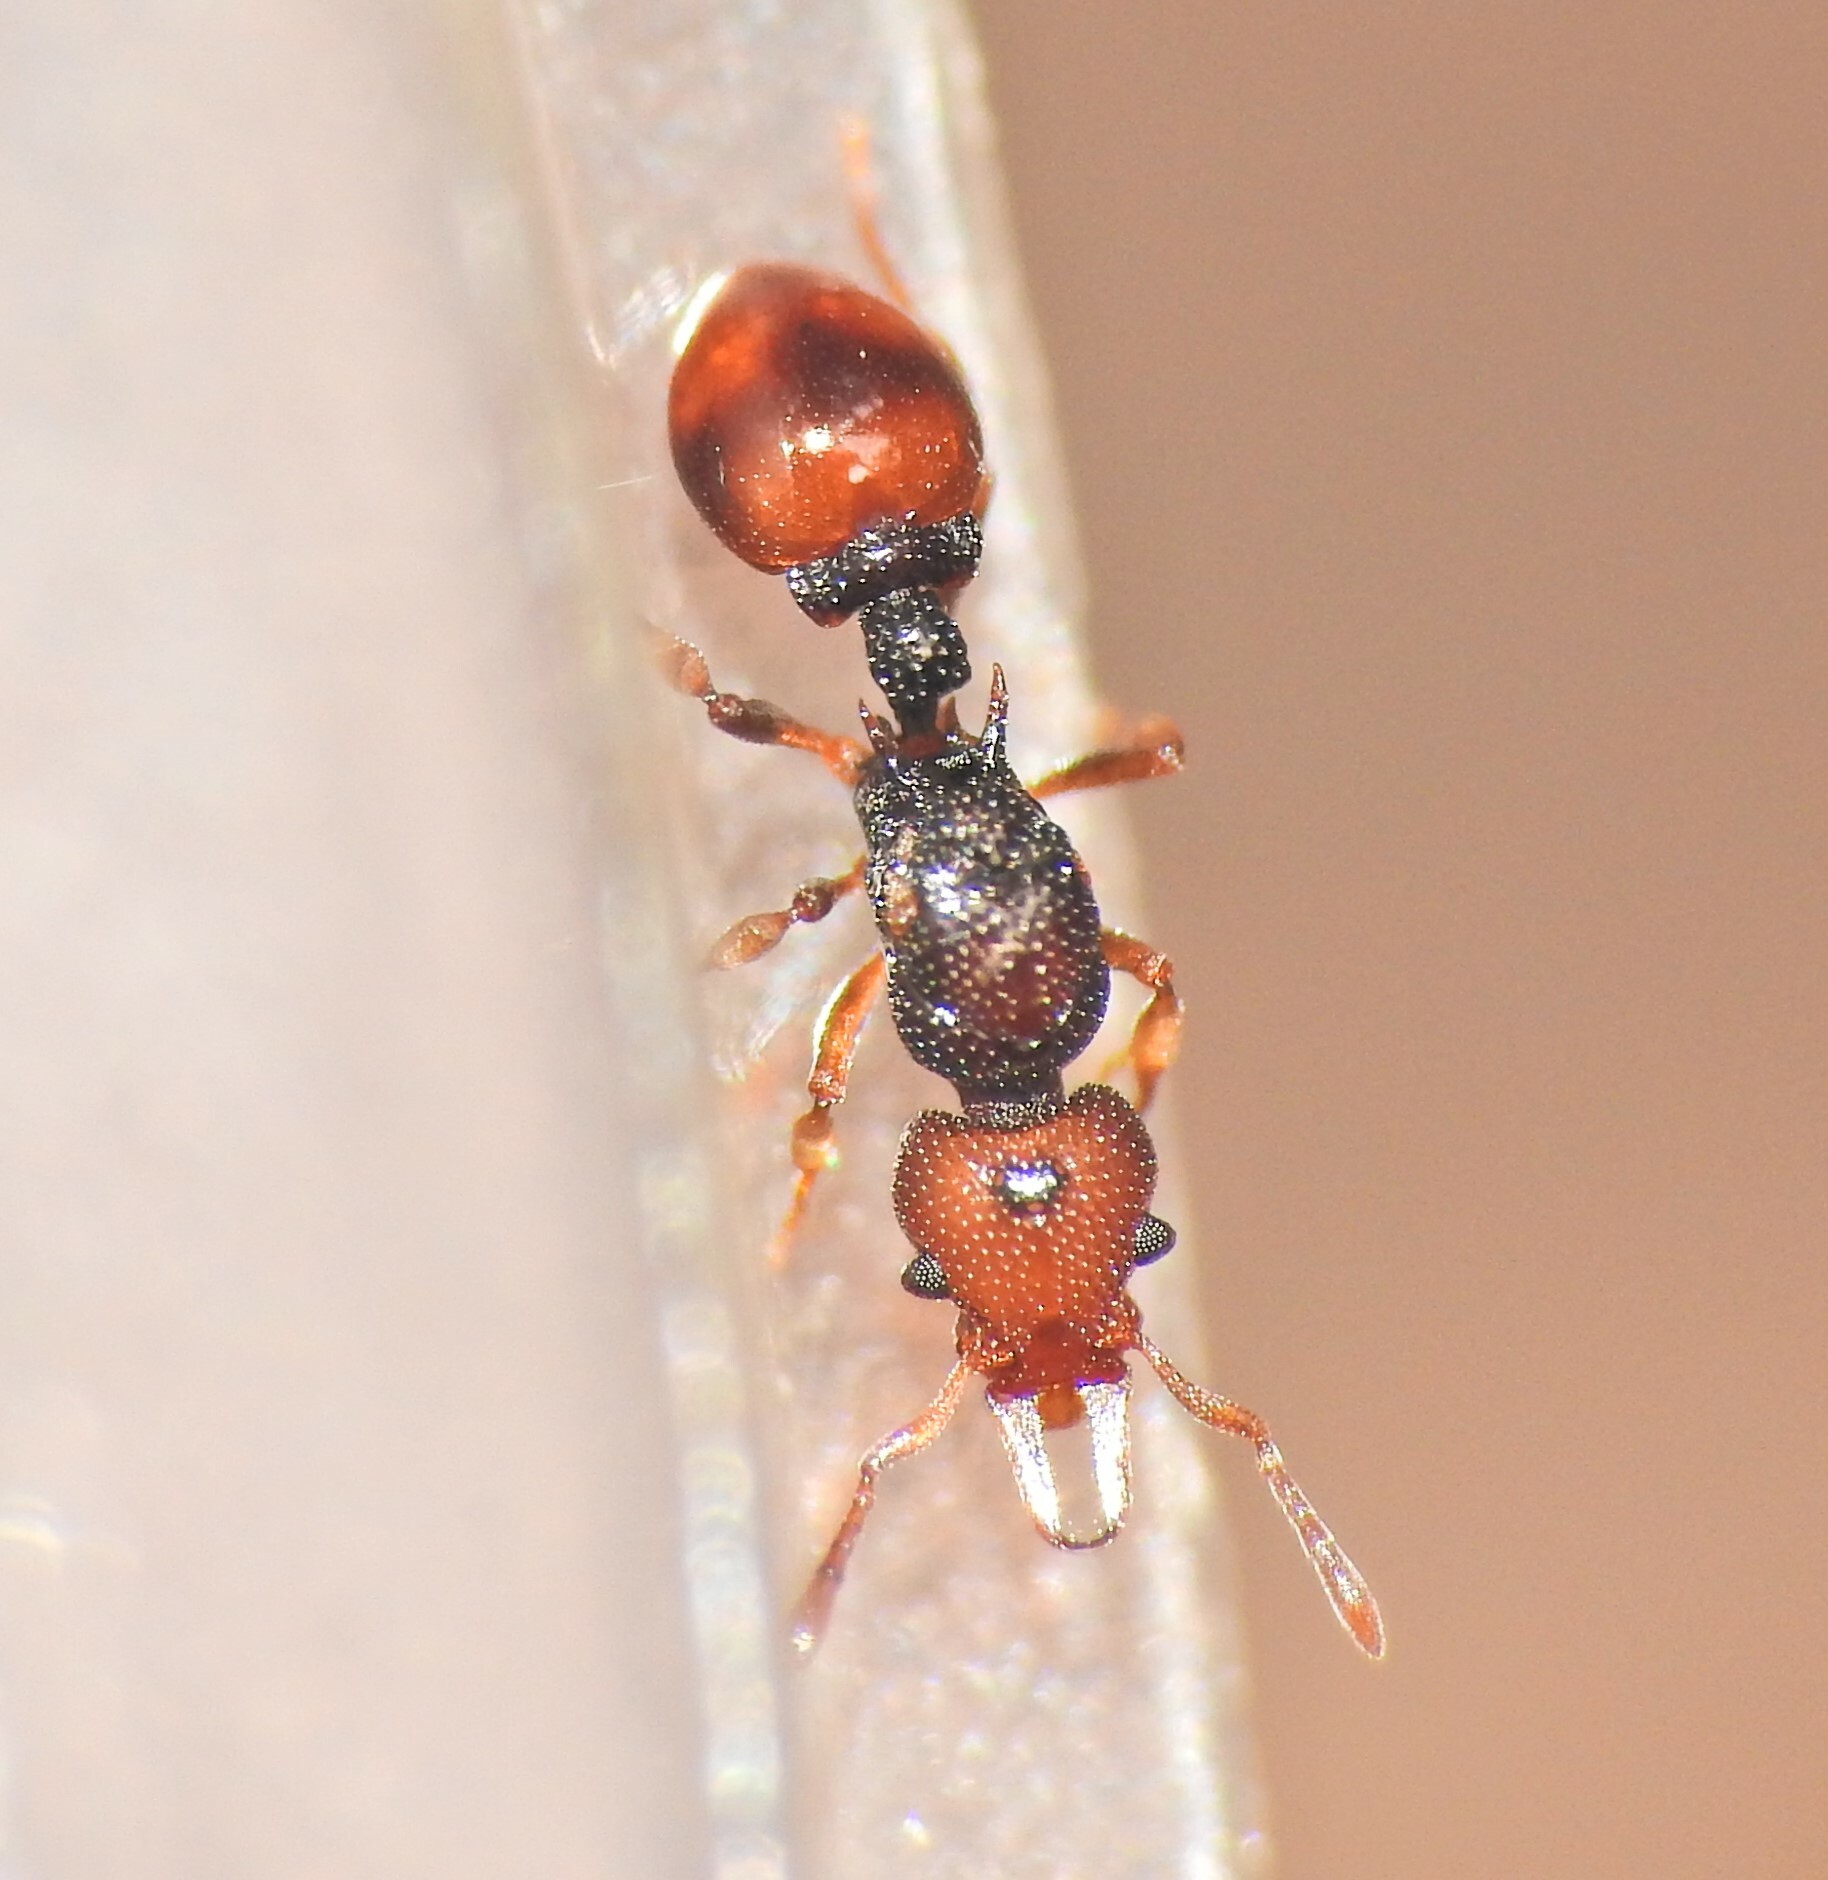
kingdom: Animalia
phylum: Arthropoda
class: Insecta
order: Hymenoptera
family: Formicidae
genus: Epopostruma
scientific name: Epopostruma
